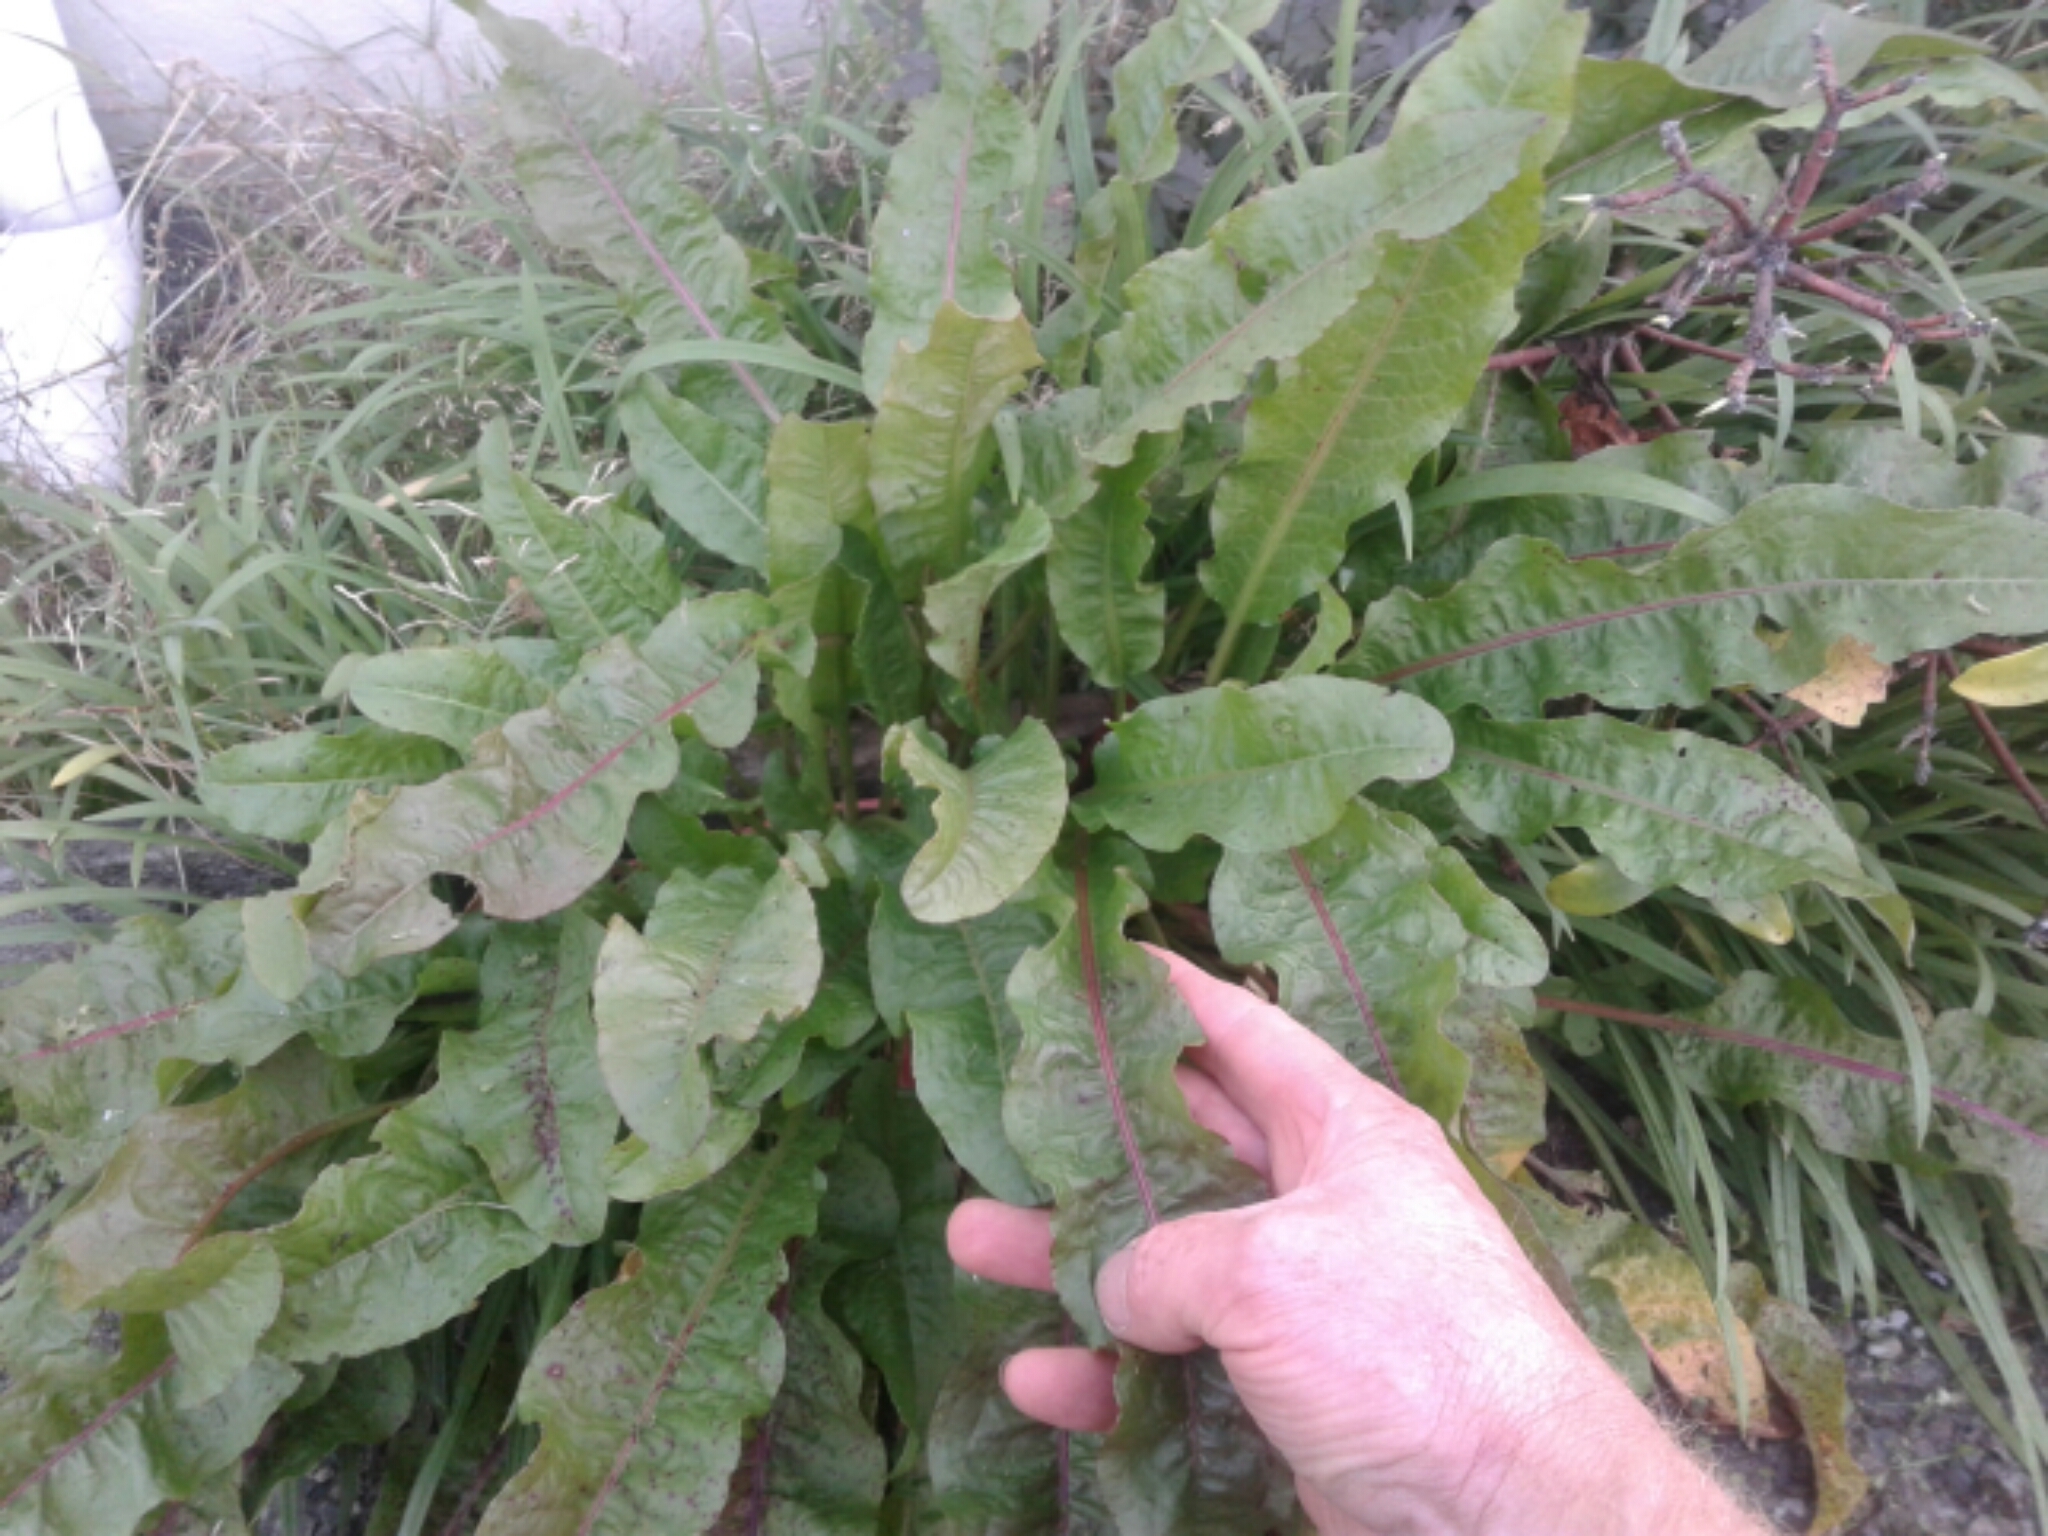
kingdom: Plantae
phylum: Tracheophyta
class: Magnoliopsida
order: Caryophyllales
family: Polygonaceae
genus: Rumex
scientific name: Rumex crispus
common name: Curled dock
